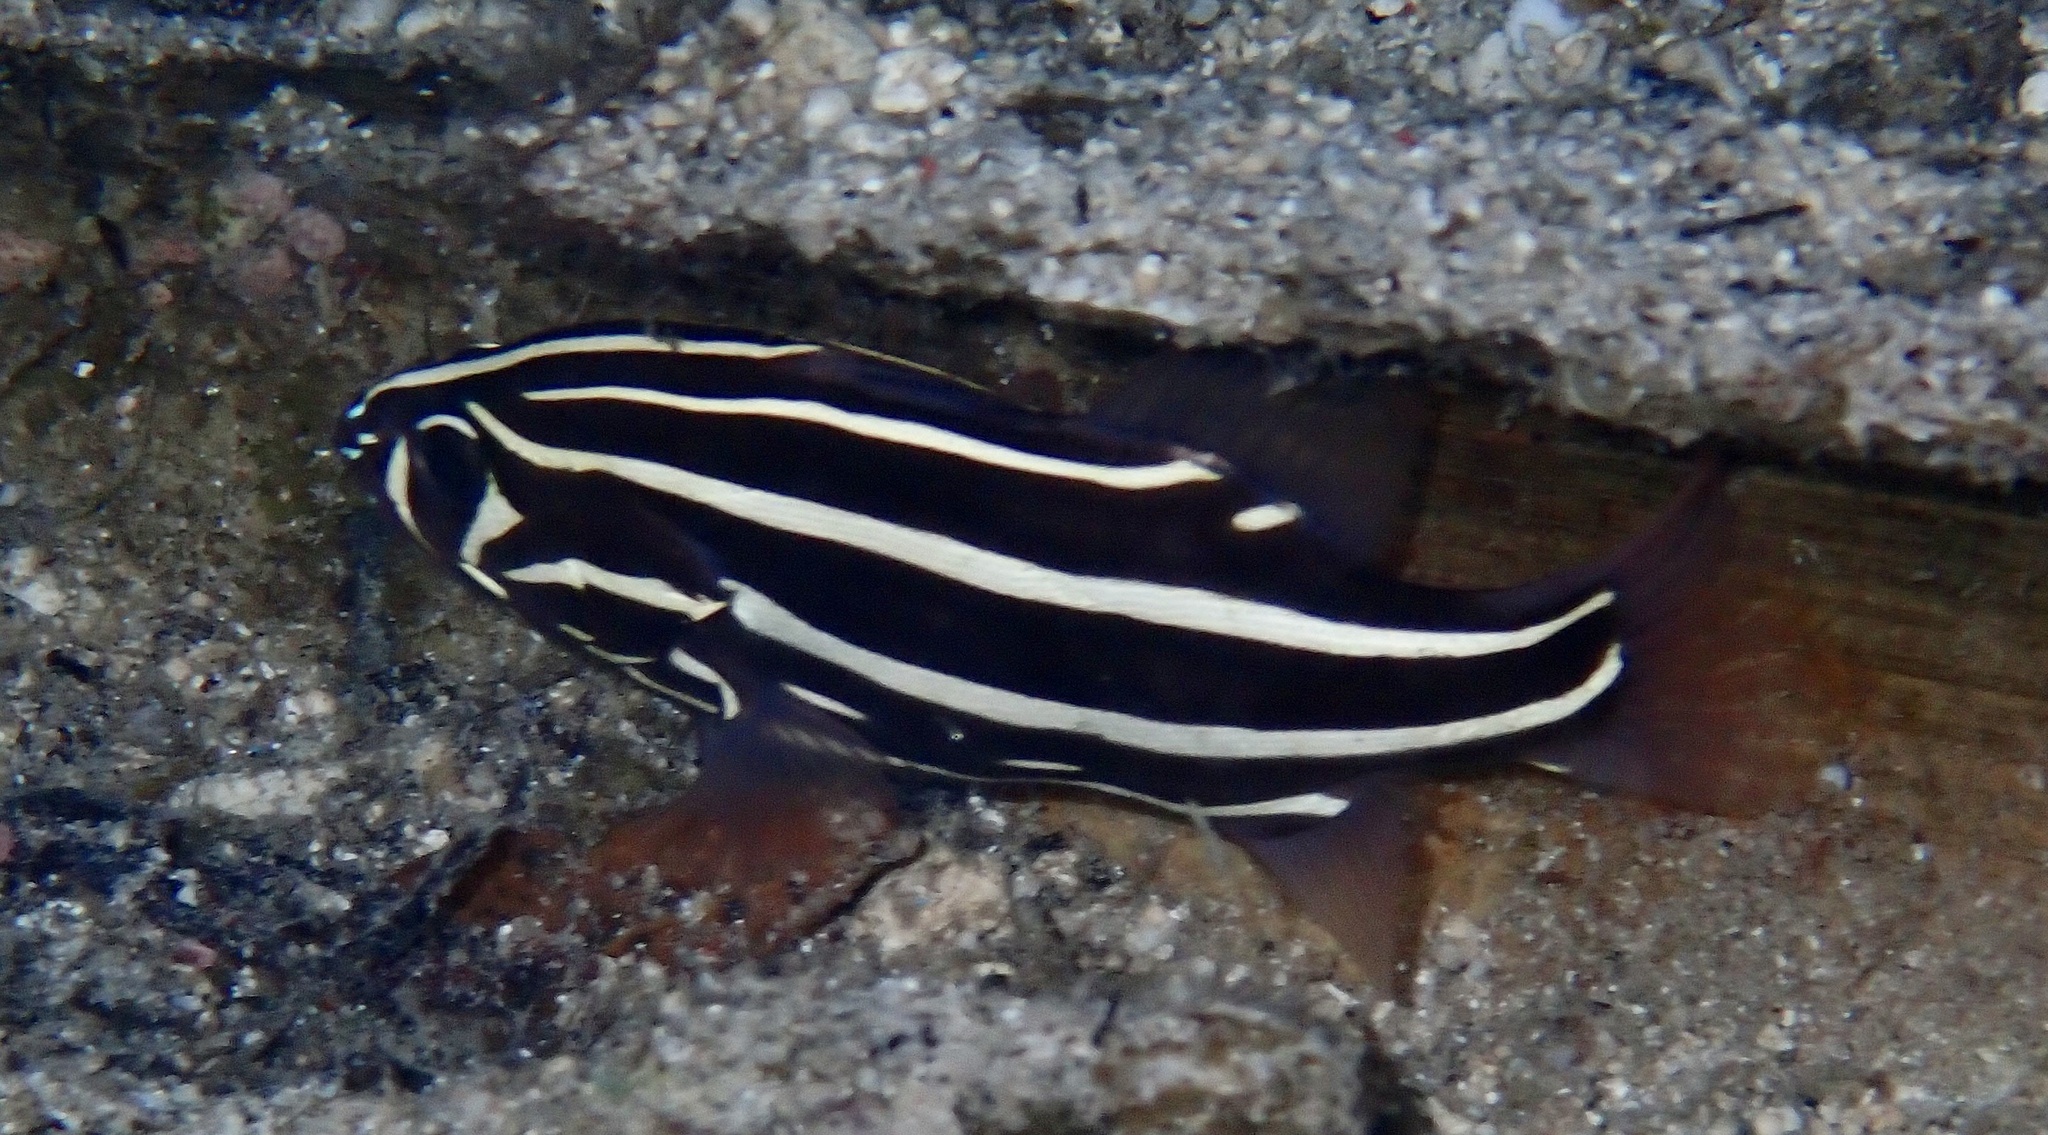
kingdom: Animalia
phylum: Chordata
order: Perciformes
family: Serranidae
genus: Grammistes
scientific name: Grammistes sexlineatus
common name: Sixline soapfish
